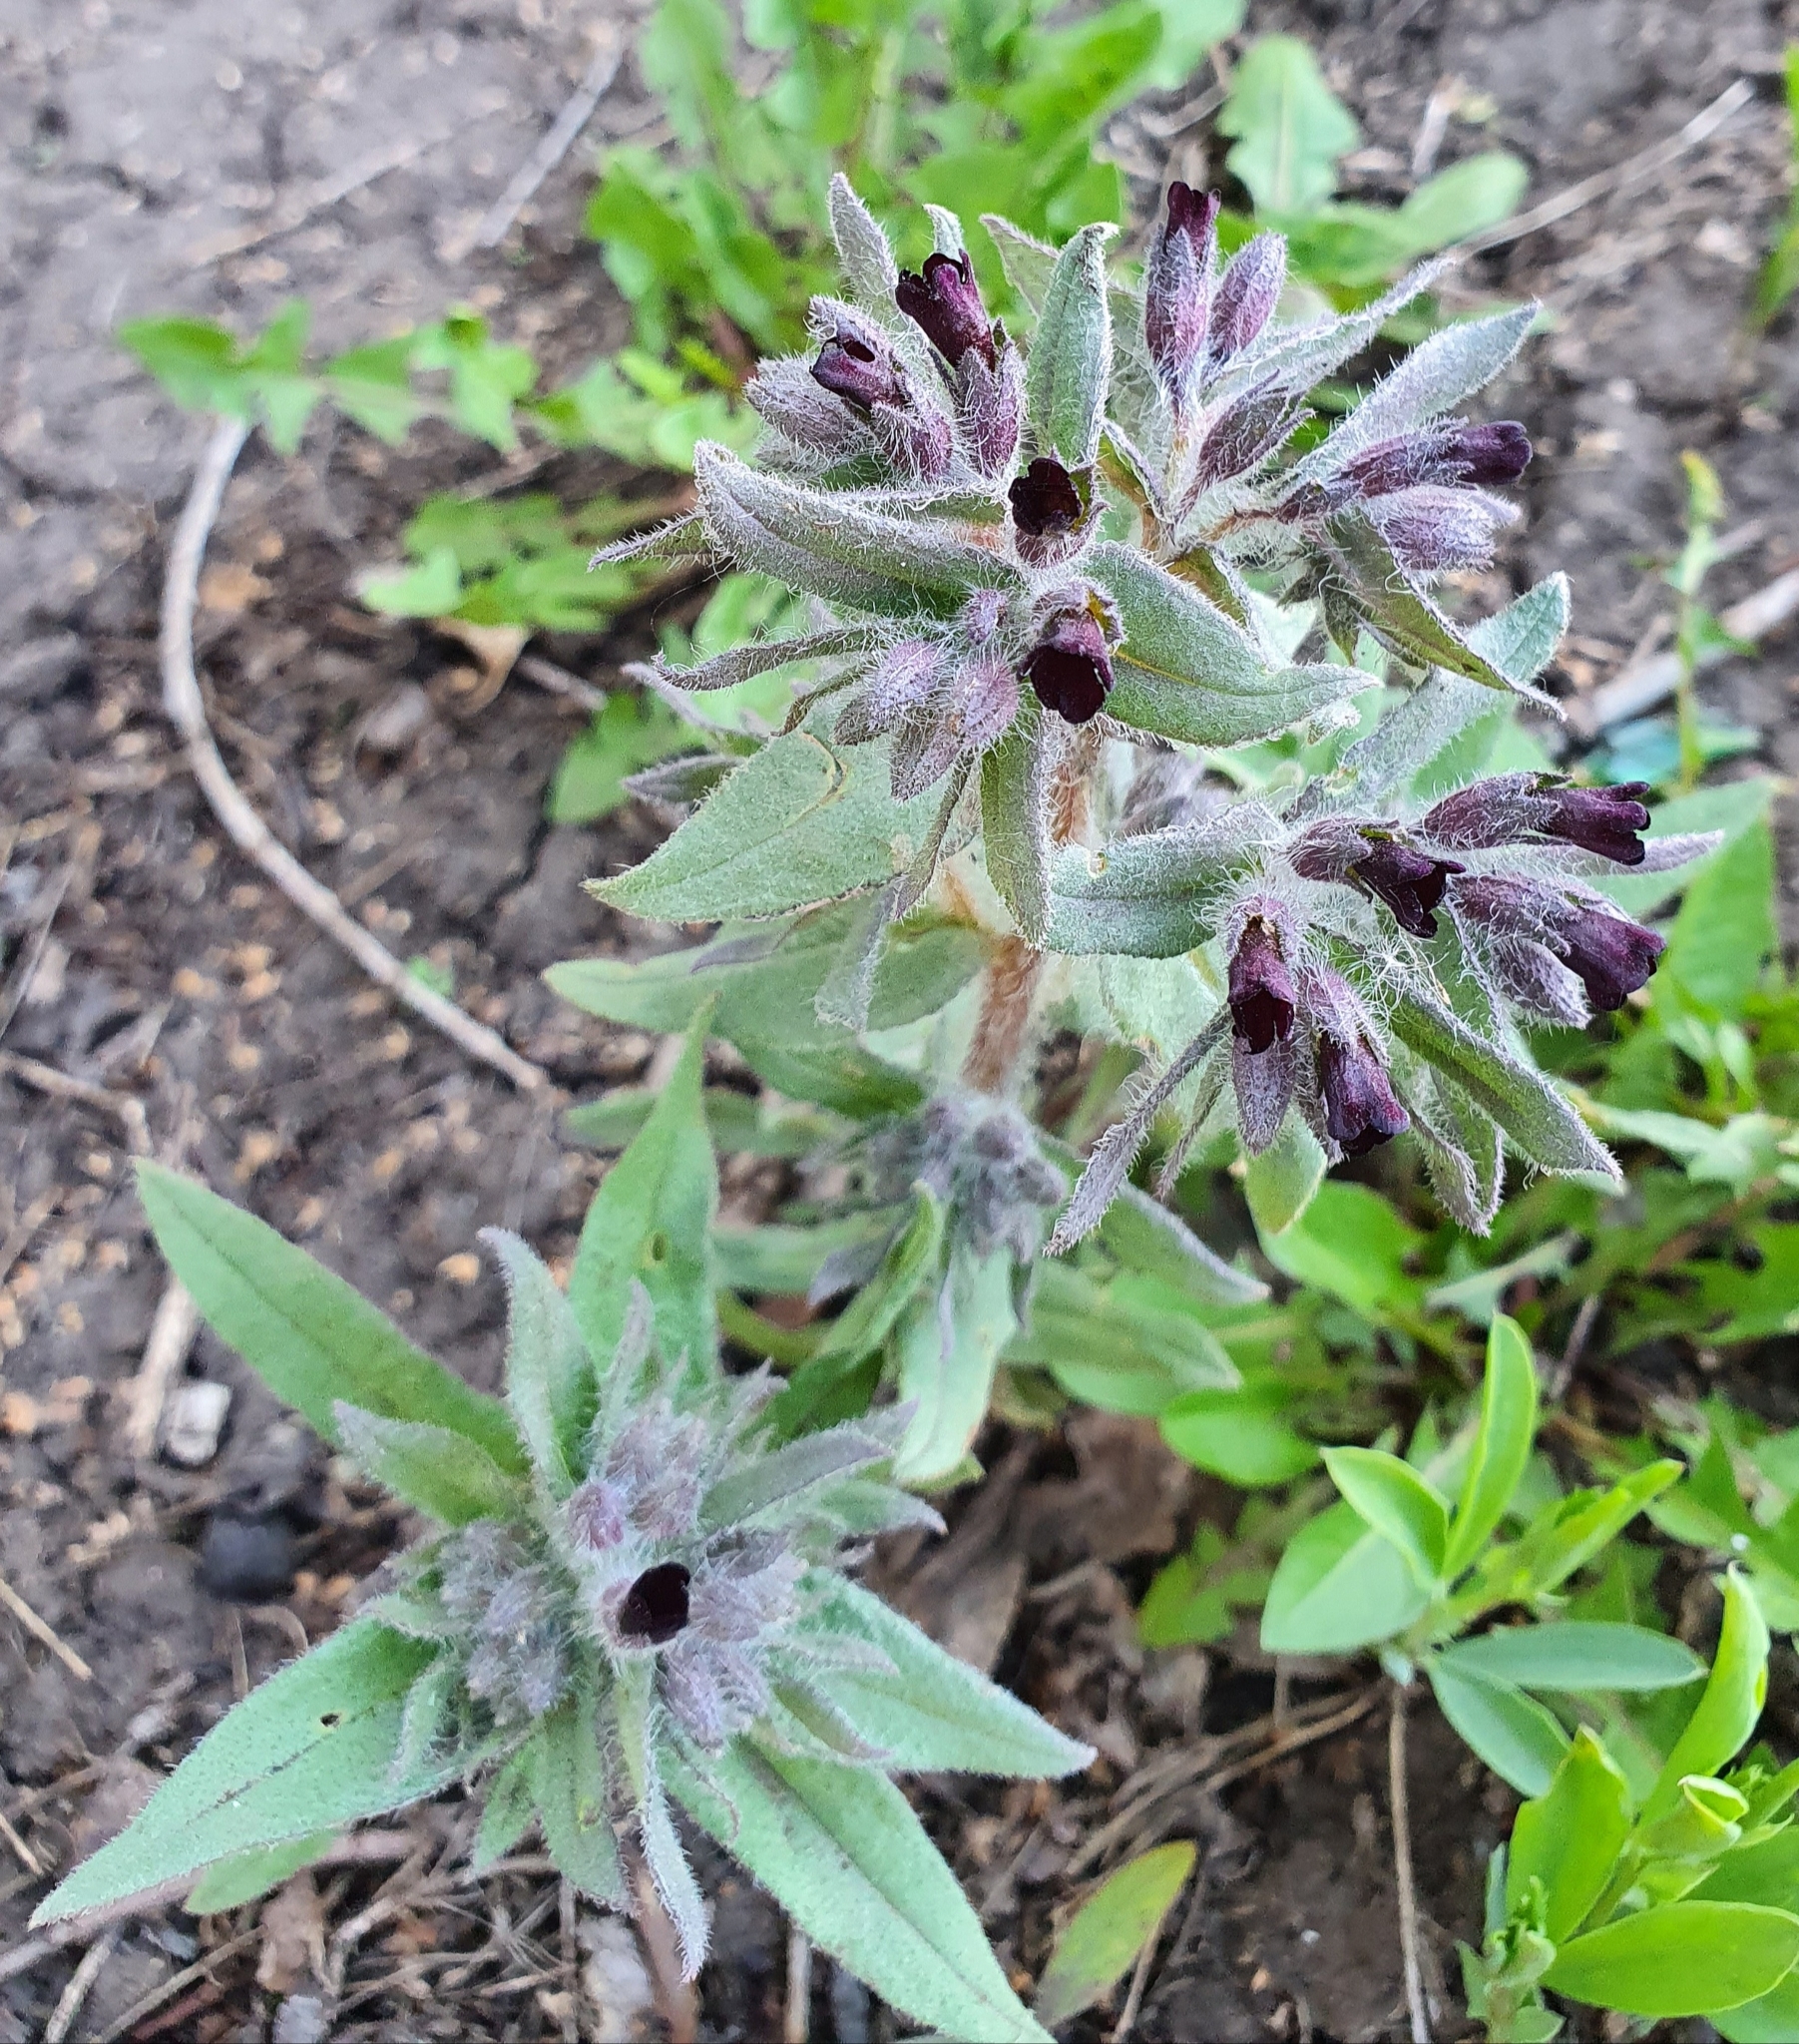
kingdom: Plantae
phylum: Tracheophyta
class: Magnoliopsida
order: Boraginales
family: Boraginaceae
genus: Nonea
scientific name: Nonea pulla
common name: Brown nonea
